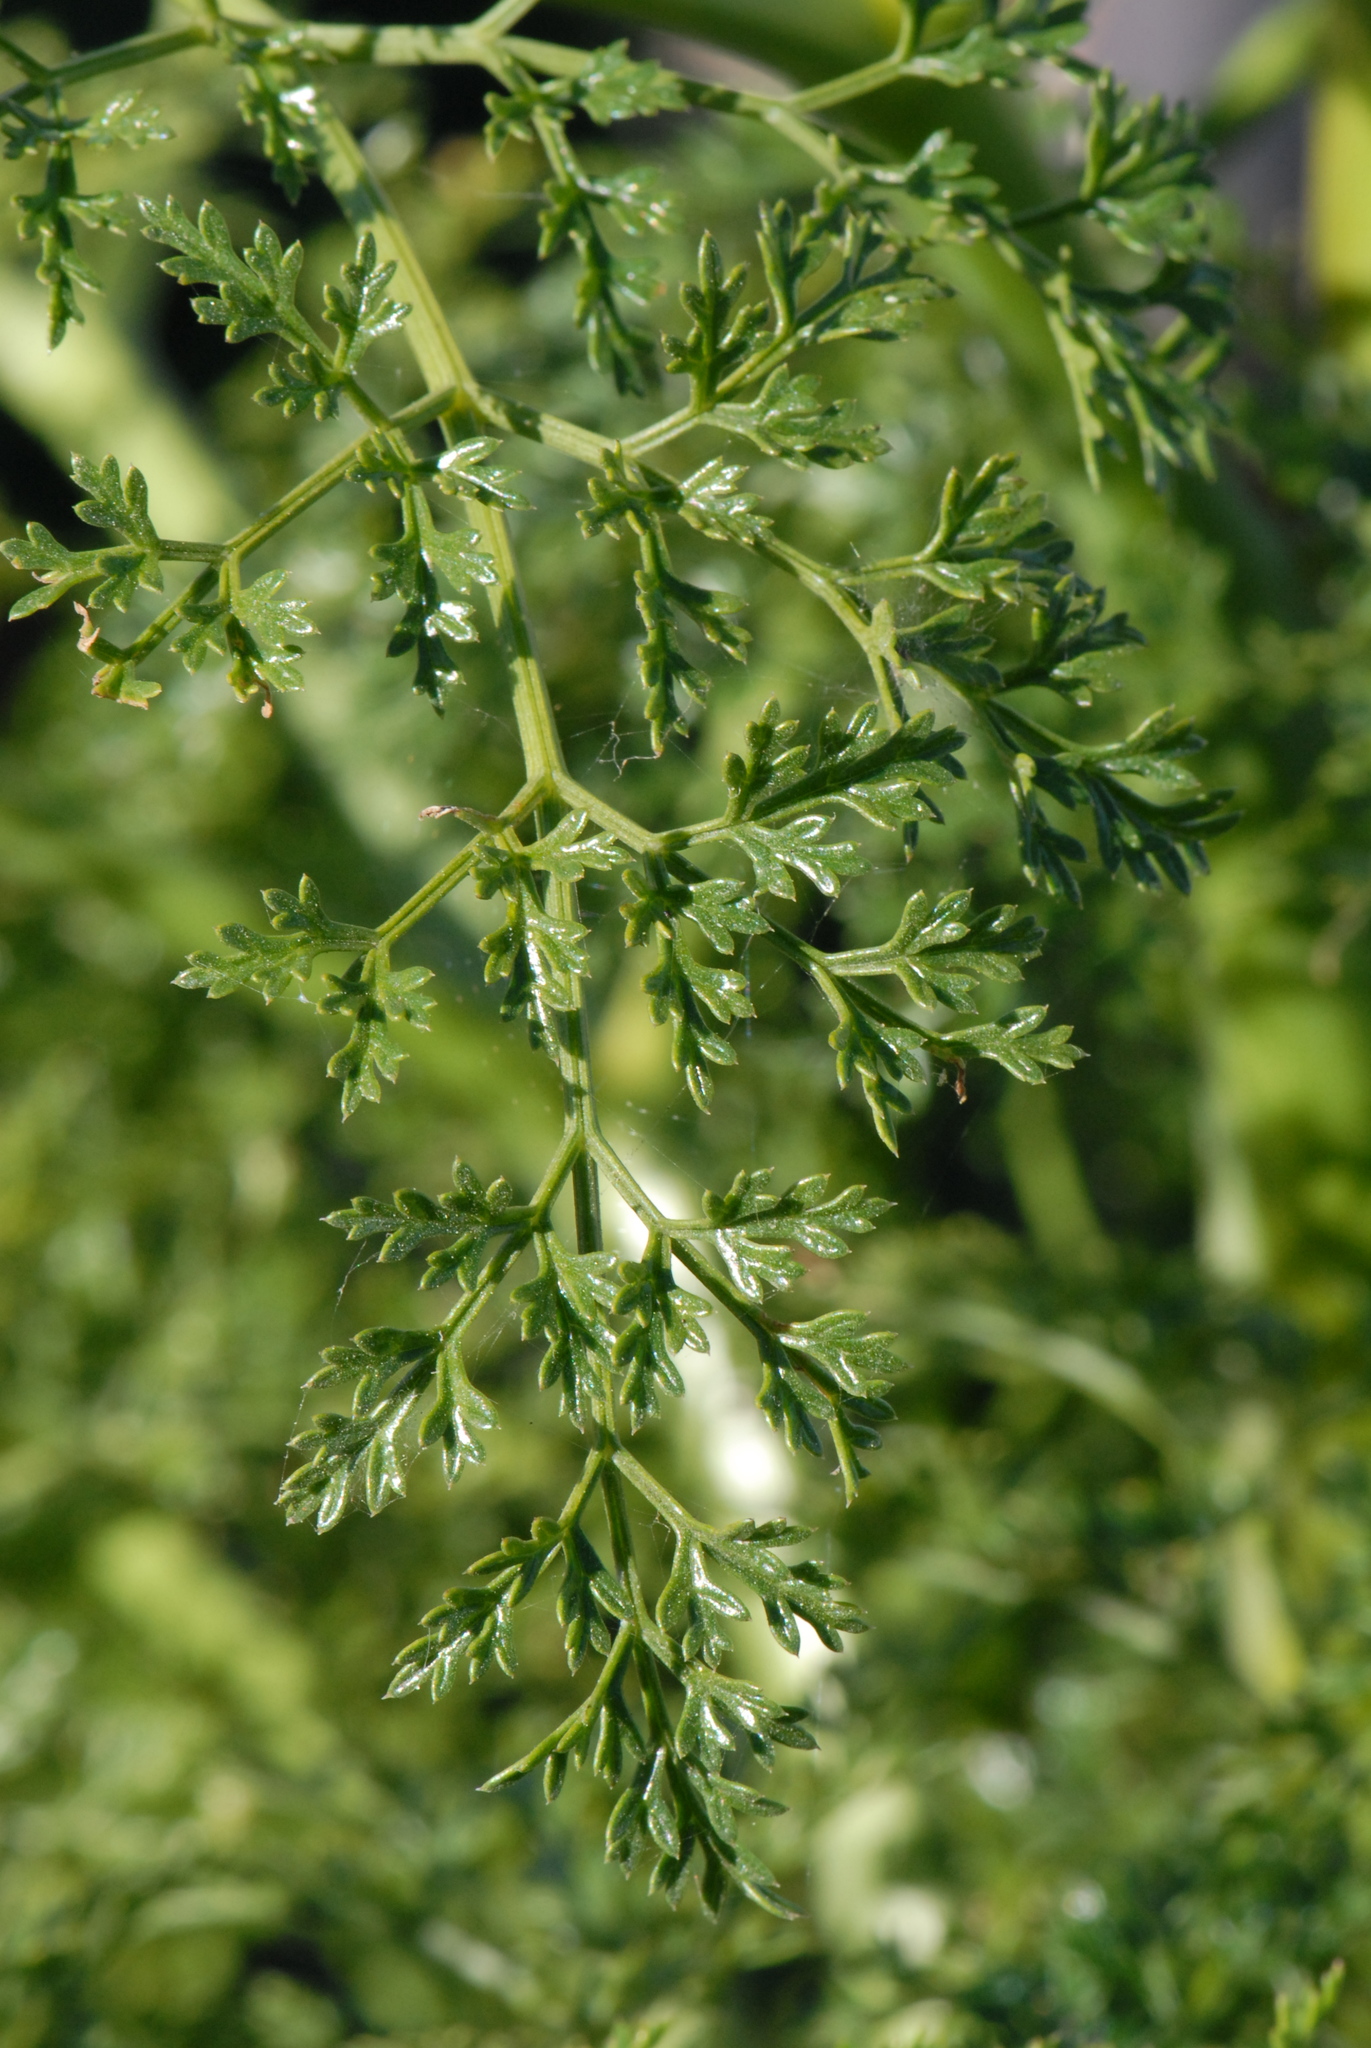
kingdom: Plantae
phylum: Tracheophyta
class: Magnoliopsida
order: Apiales
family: Apiaceae
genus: Ferula
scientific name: Ferula tingitana
